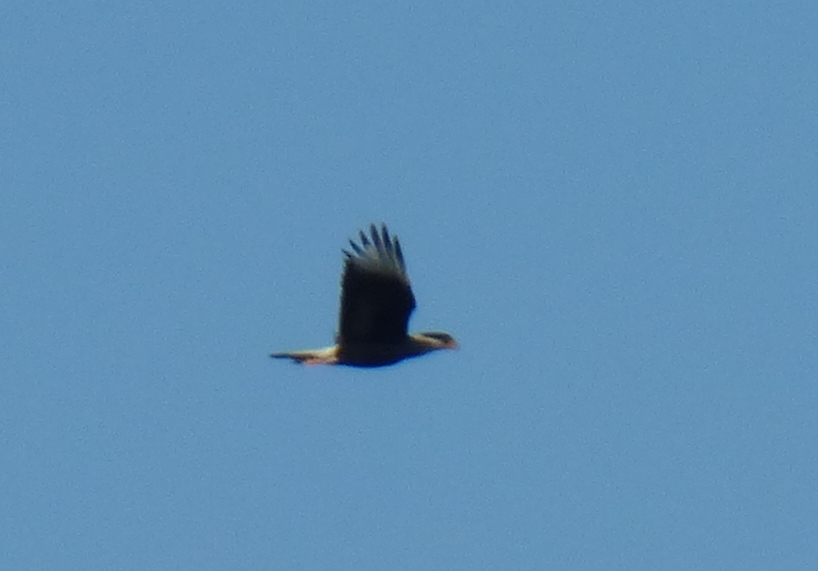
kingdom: Animalia
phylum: Chordata
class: Aves
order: Falconiformes
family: Falconidae
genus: Caracara
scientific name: Caracara plancus
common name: Southern caracara
